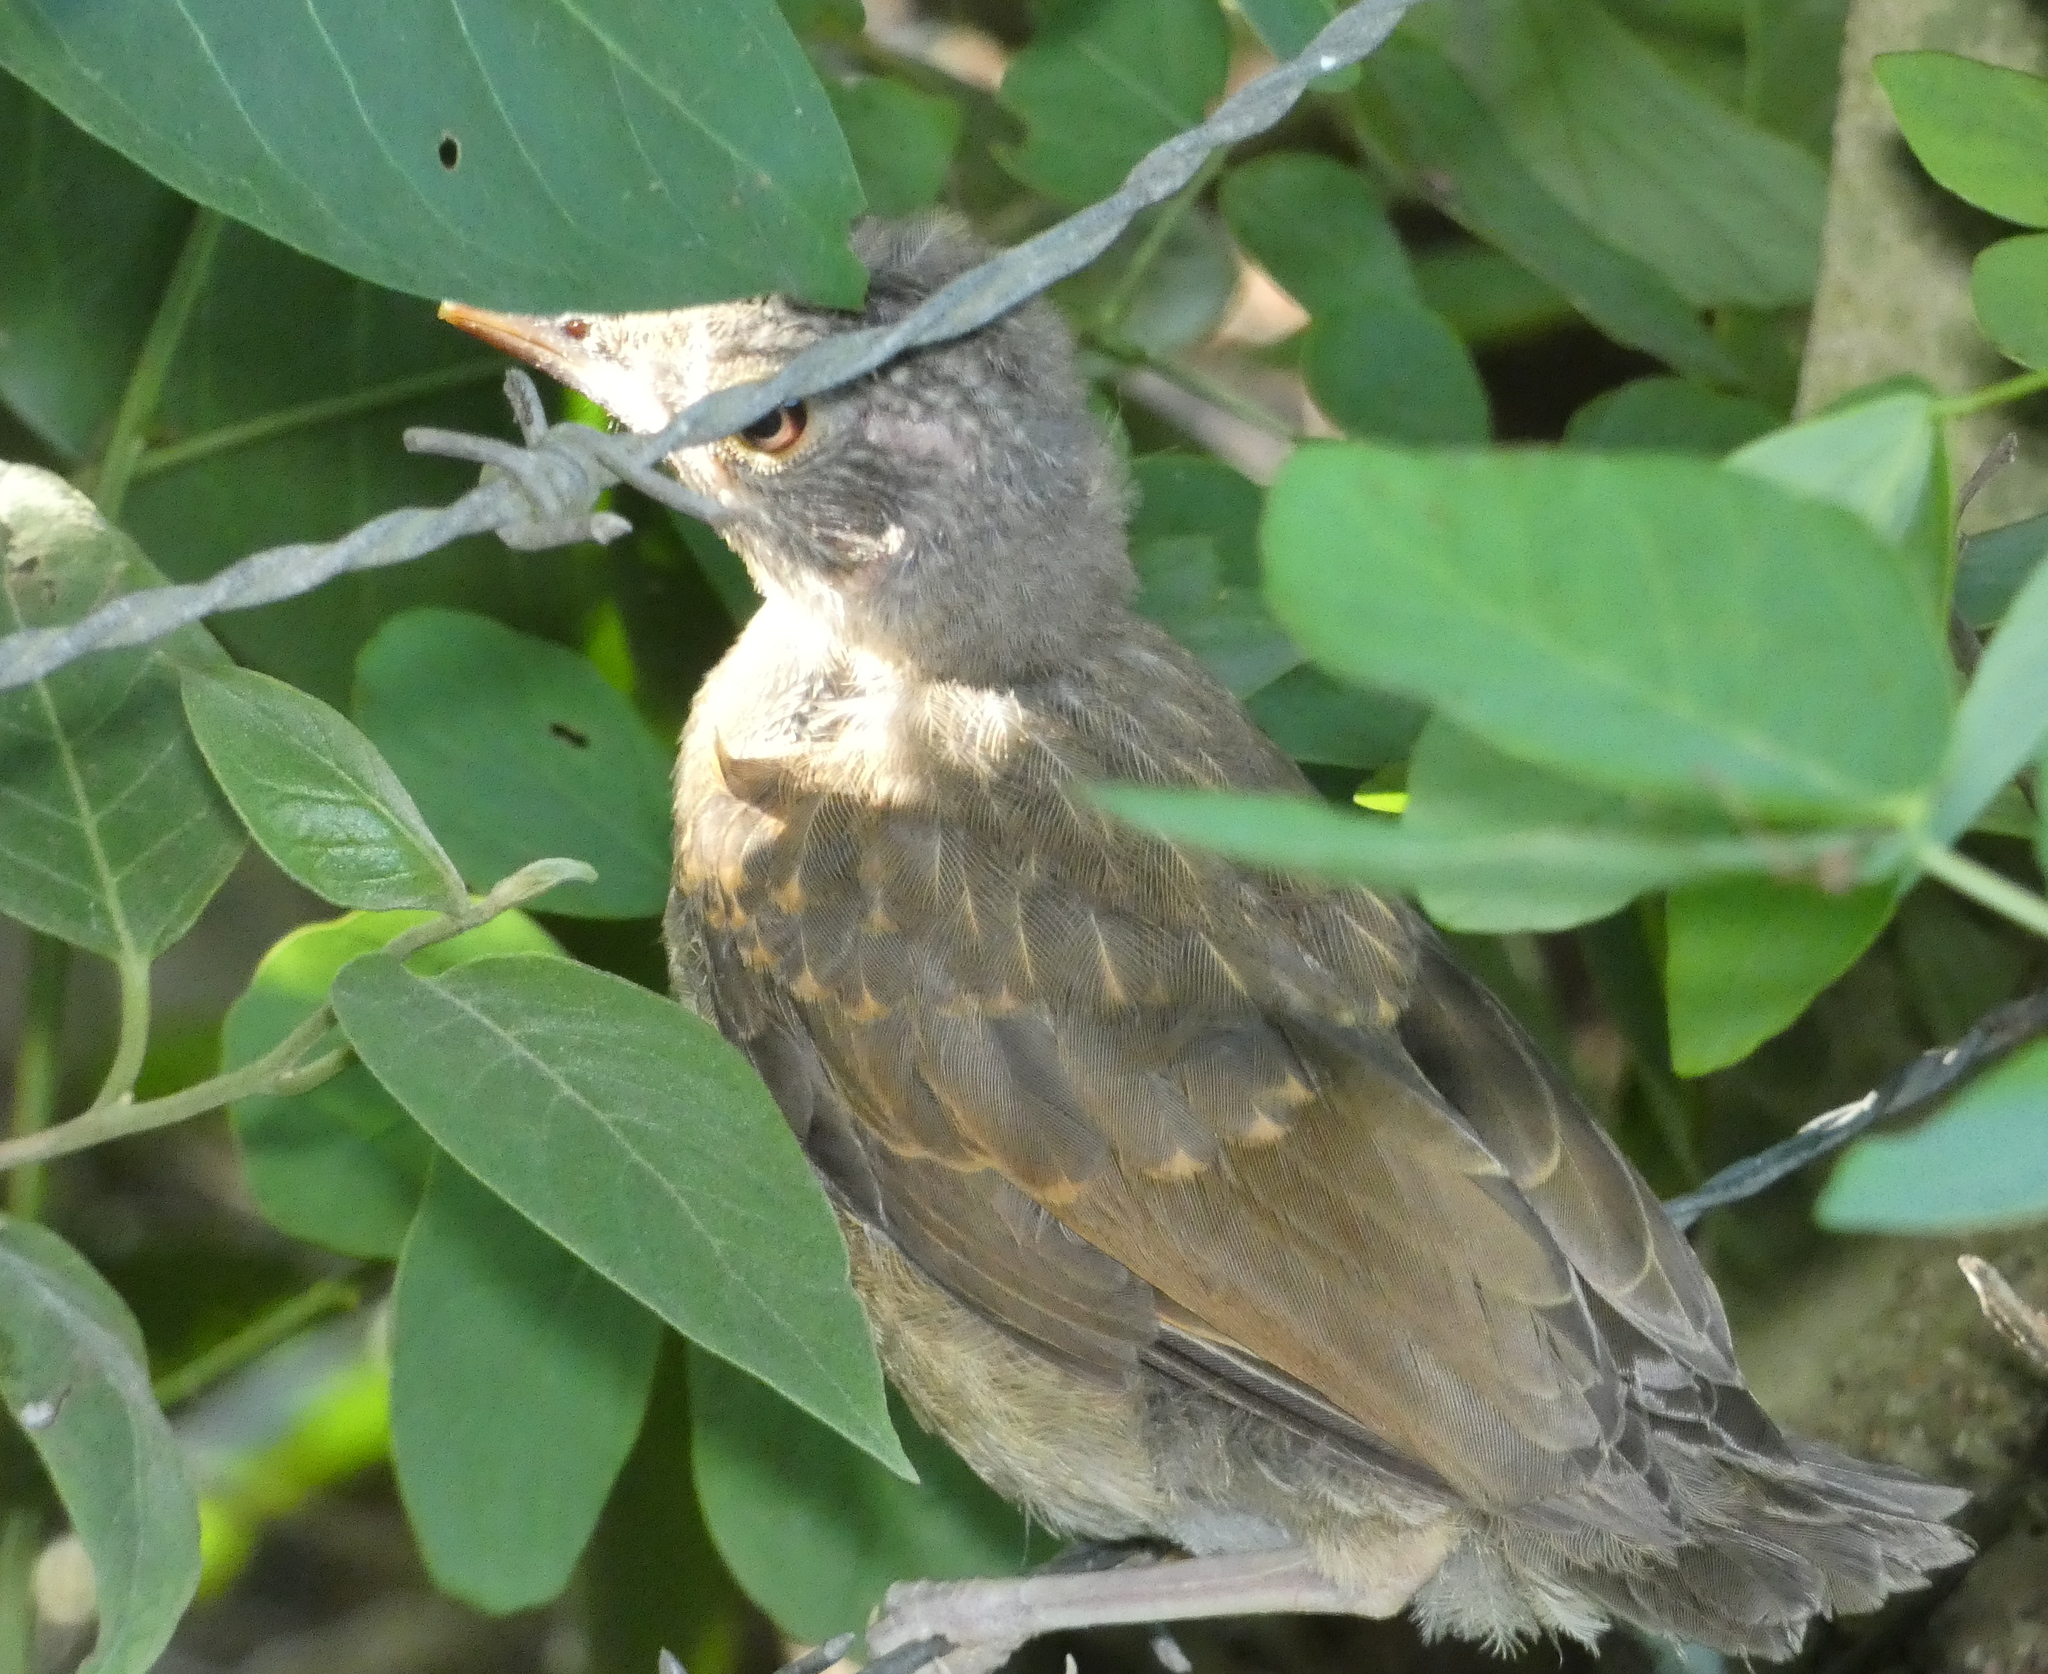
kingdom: Animalia
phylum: Chordata
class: Aves
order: Passeriformes
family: Turdidae
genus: Turdus
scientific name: Turdus leucomelas
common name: Pale-breasted thrush
